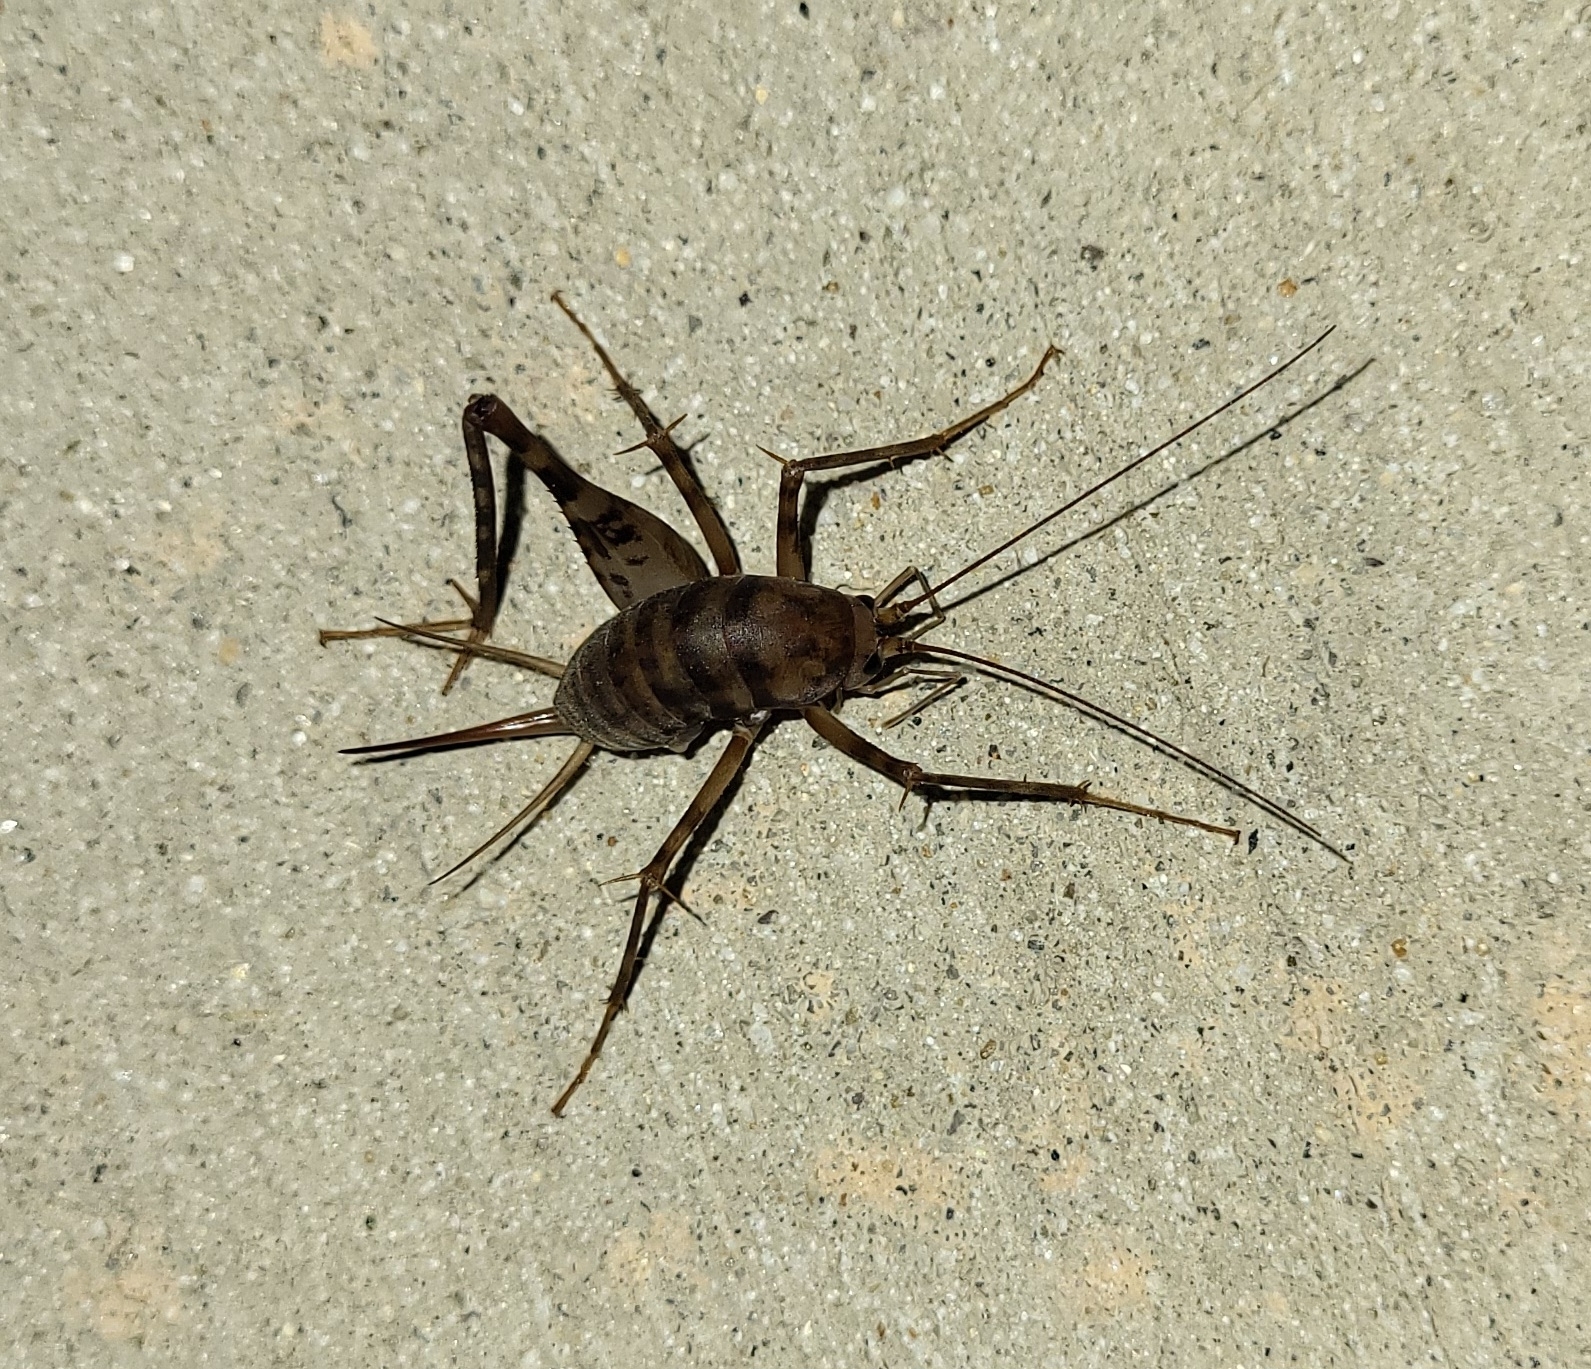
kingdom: Animalia
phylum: Arthropoda
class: Insecta
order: Orthoptera
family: Rhaphidophoridae
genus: Tachycines
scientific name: Tachycines asynamorus
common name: Greenhouse camel cricket
